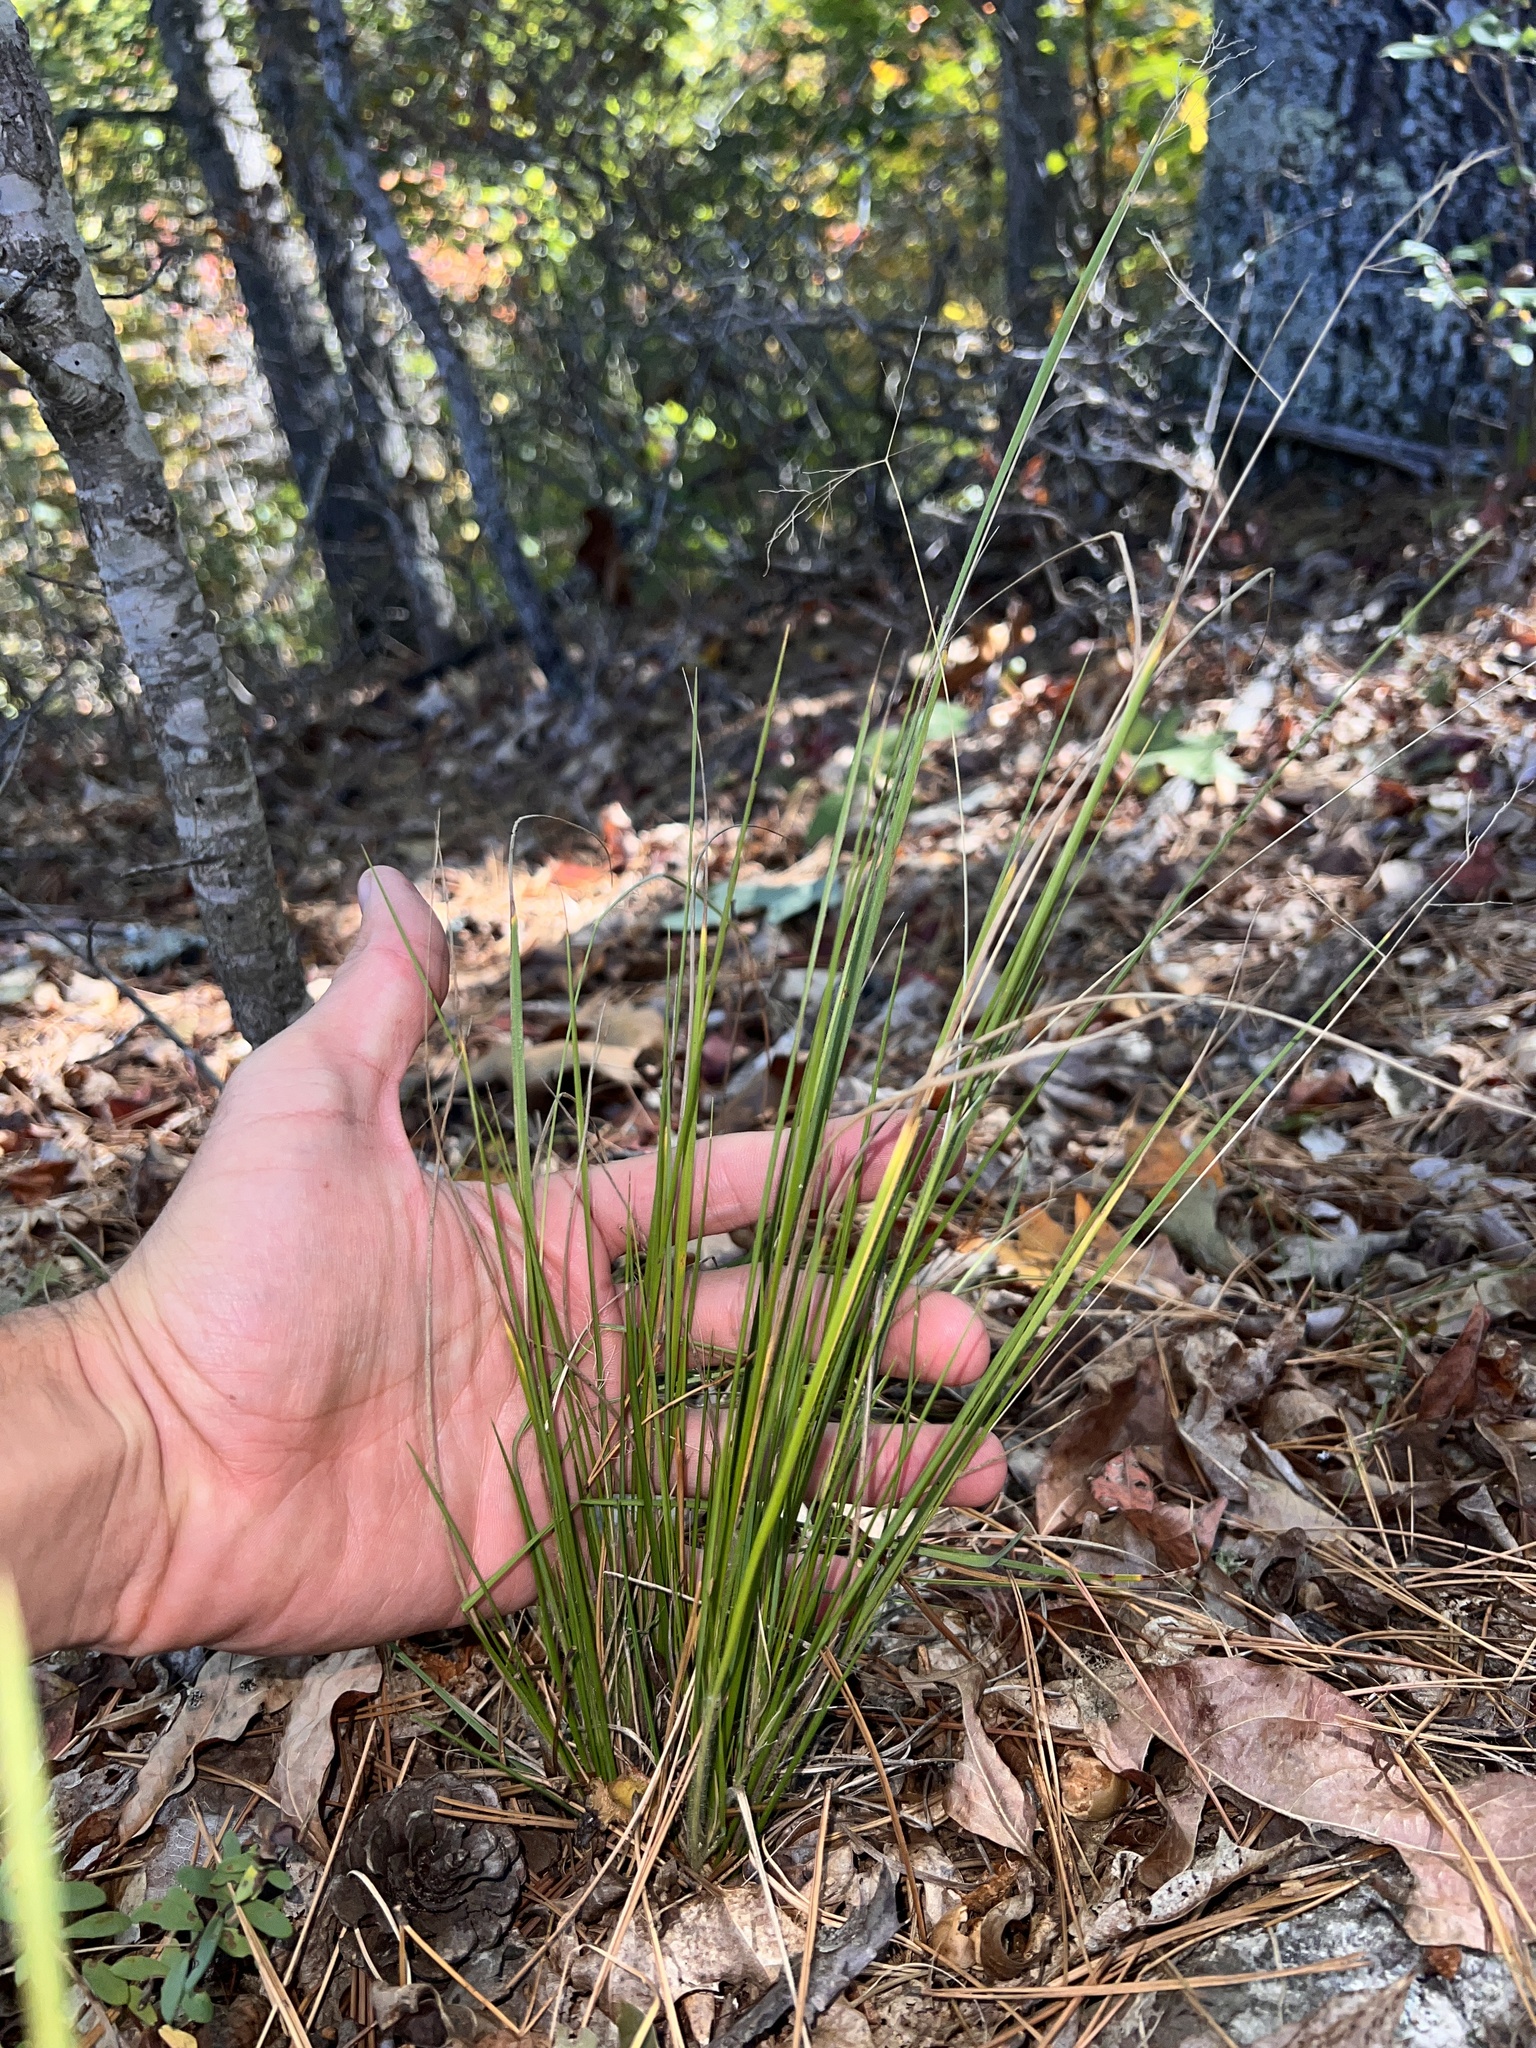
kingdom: Plantae
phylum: Tracheophyta
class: Liliopsida
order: Poales
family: Poaceae
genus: Dichanthelium
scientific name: Dichanthelium linearifolium
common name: Linear-leaved panicgrass
